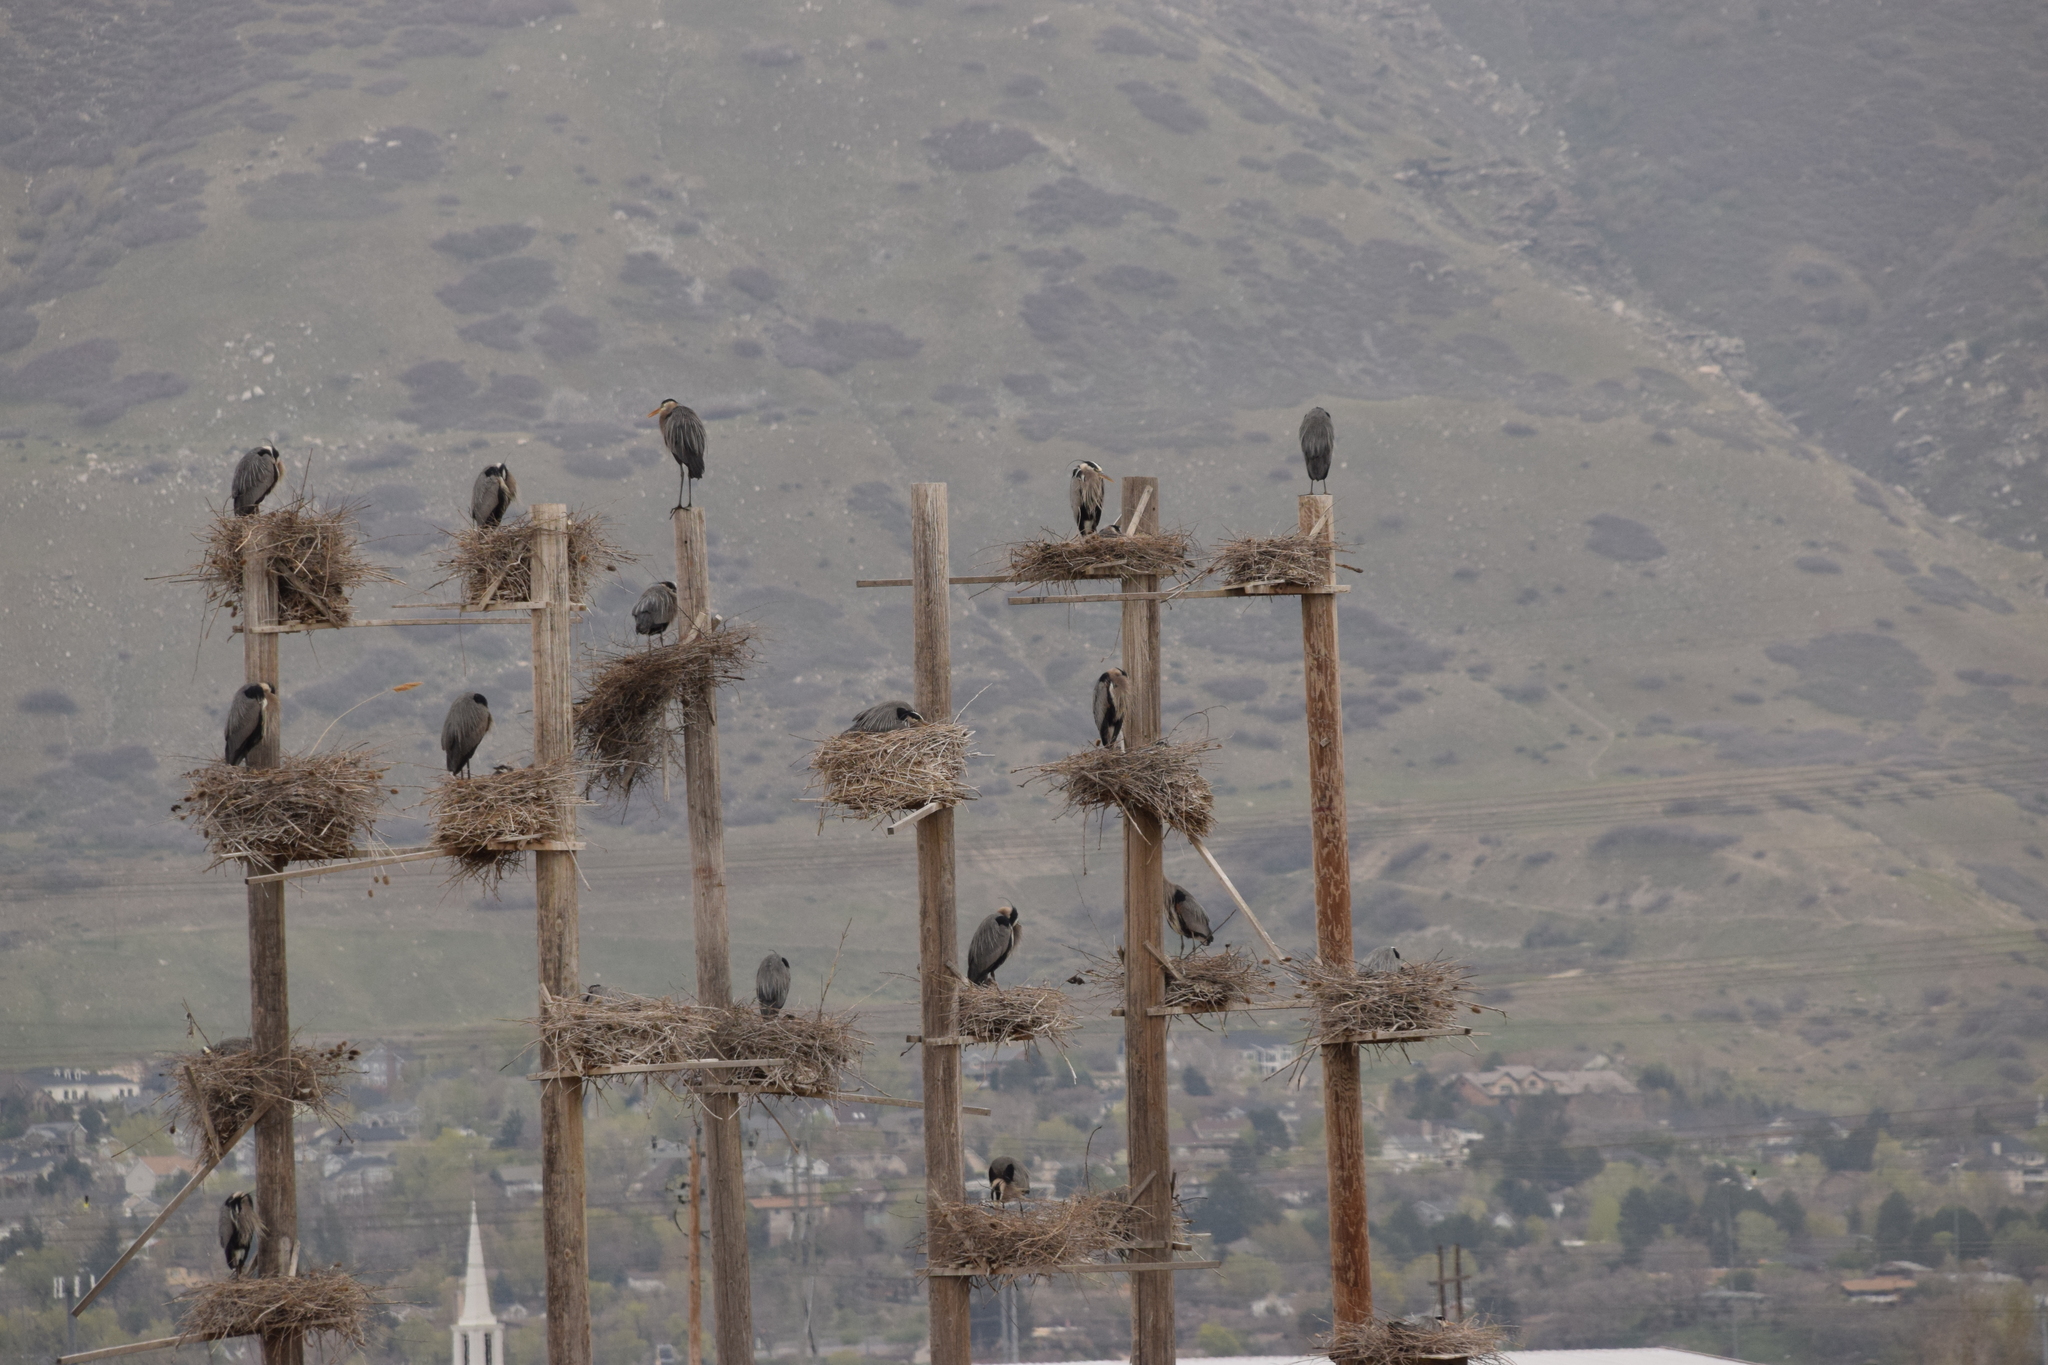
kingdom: Animalia
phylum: Chordata
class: Aves
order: Pelecaniformes
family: Ardeidae
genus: Ardea
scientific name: Ardea herodias
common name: Great blue heron
